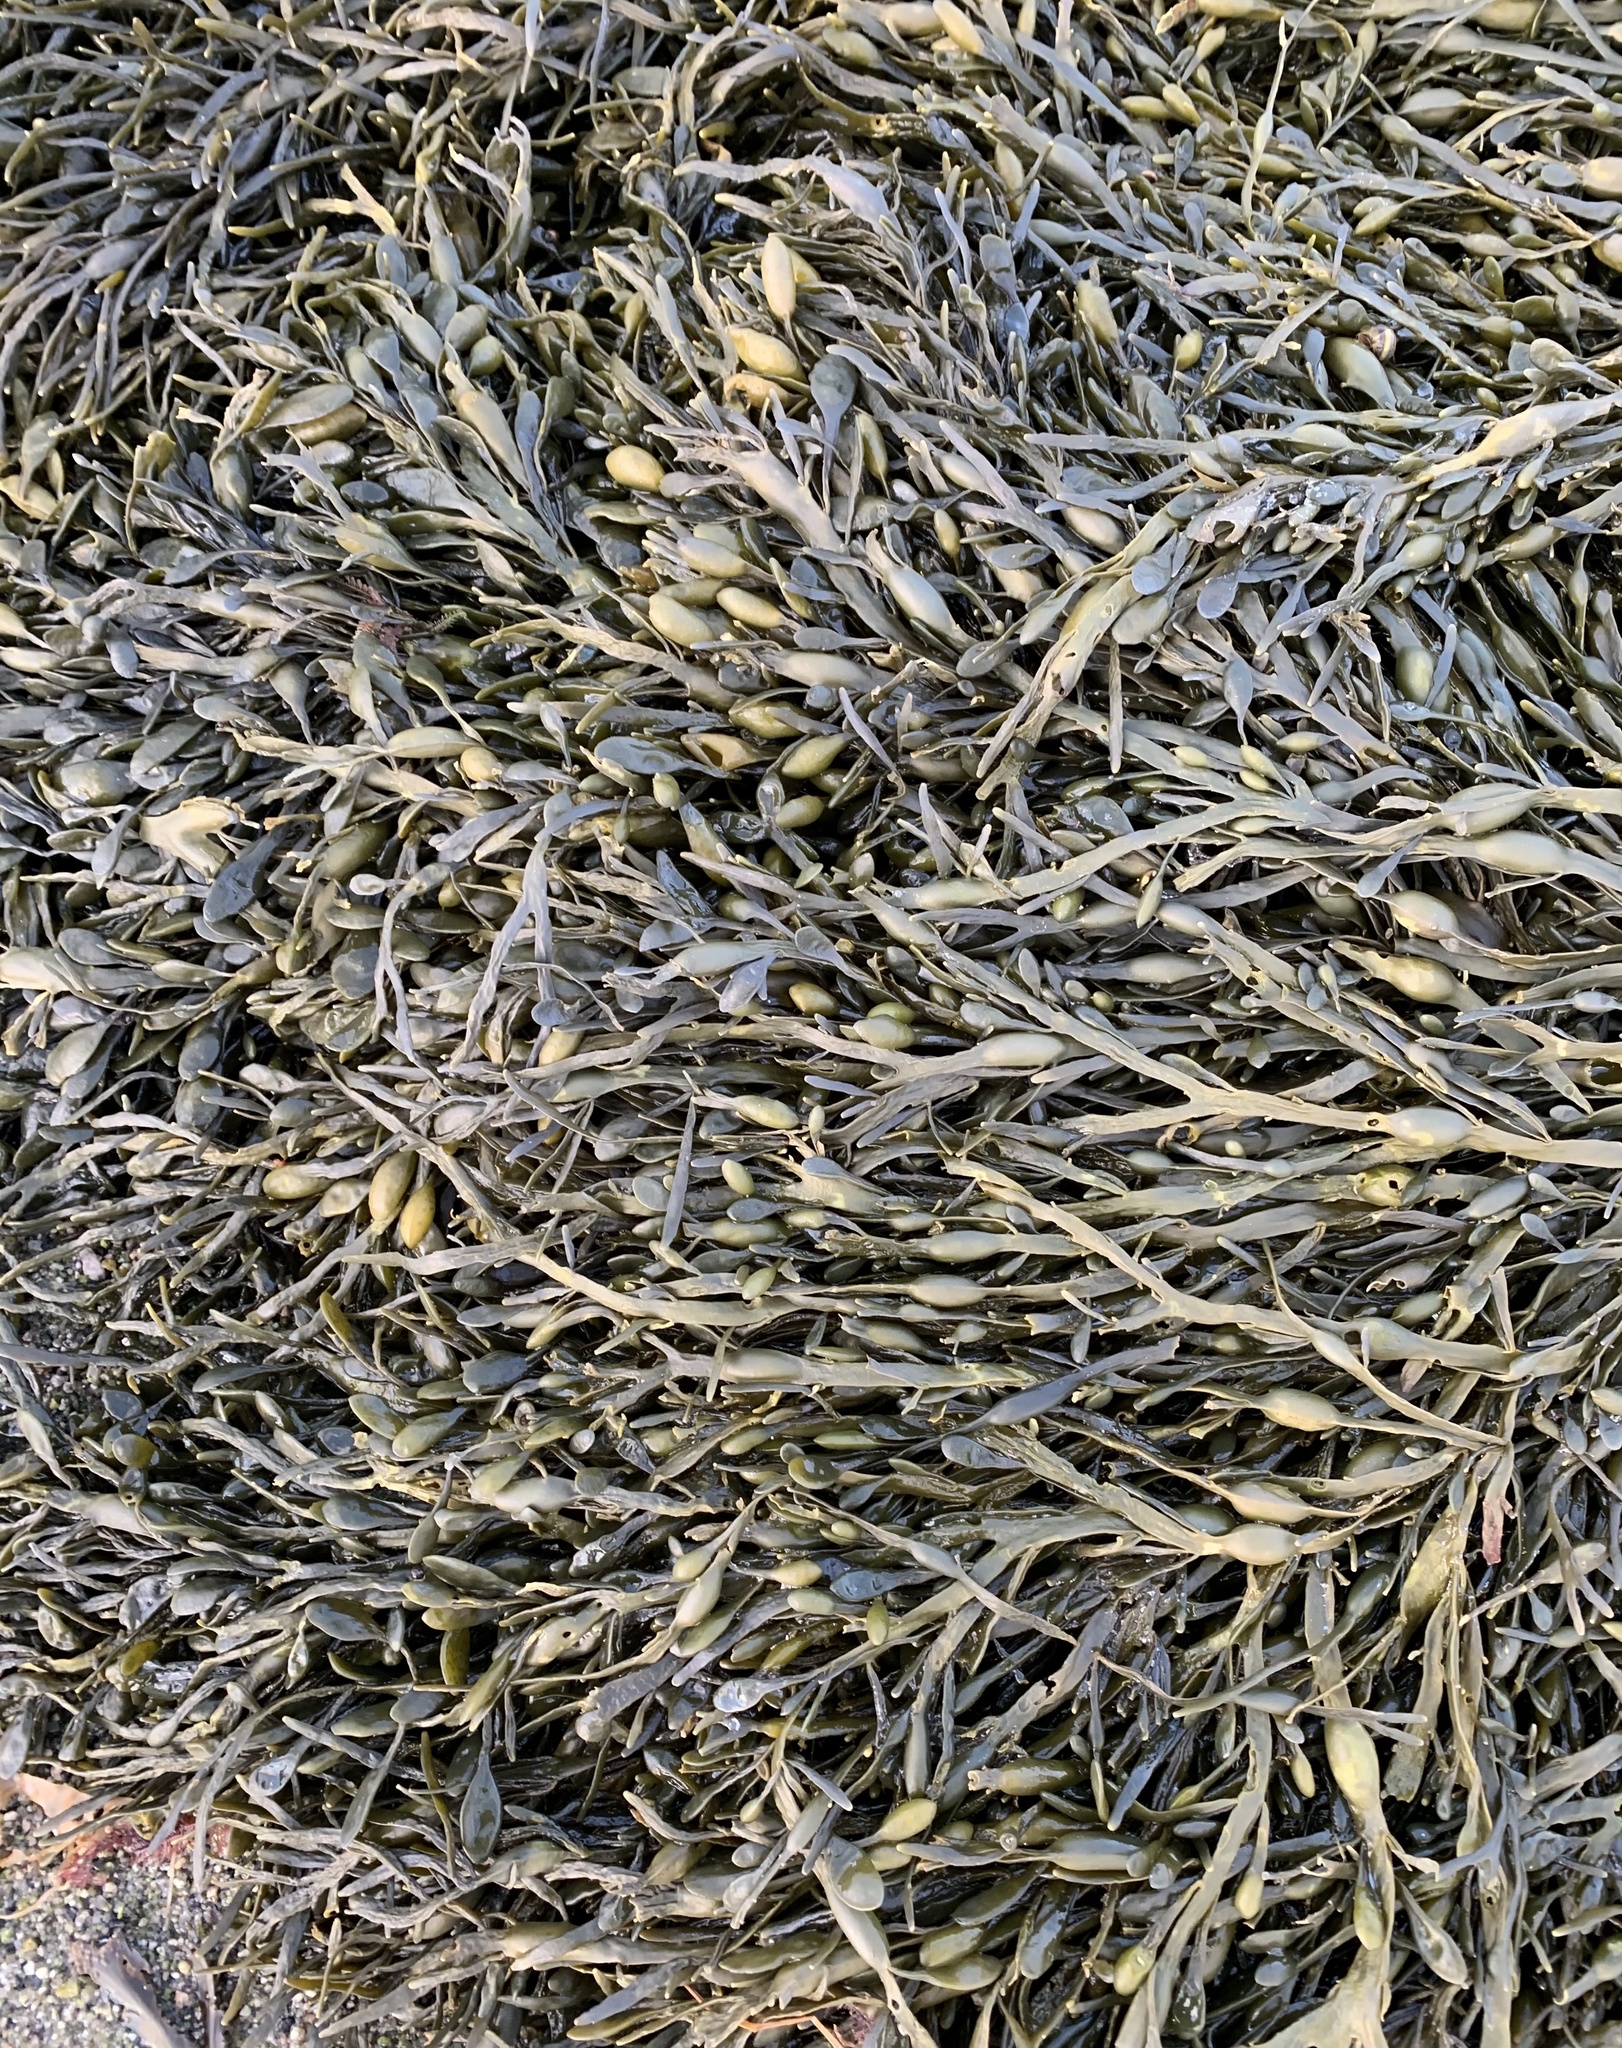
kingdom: Chromista
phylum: Ochrophyta
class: Phaeophyceae
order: Fucales
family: Fucaceae
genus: Ascophyllum
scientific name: Ascophyllum nodosum
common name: Knotted wrack
